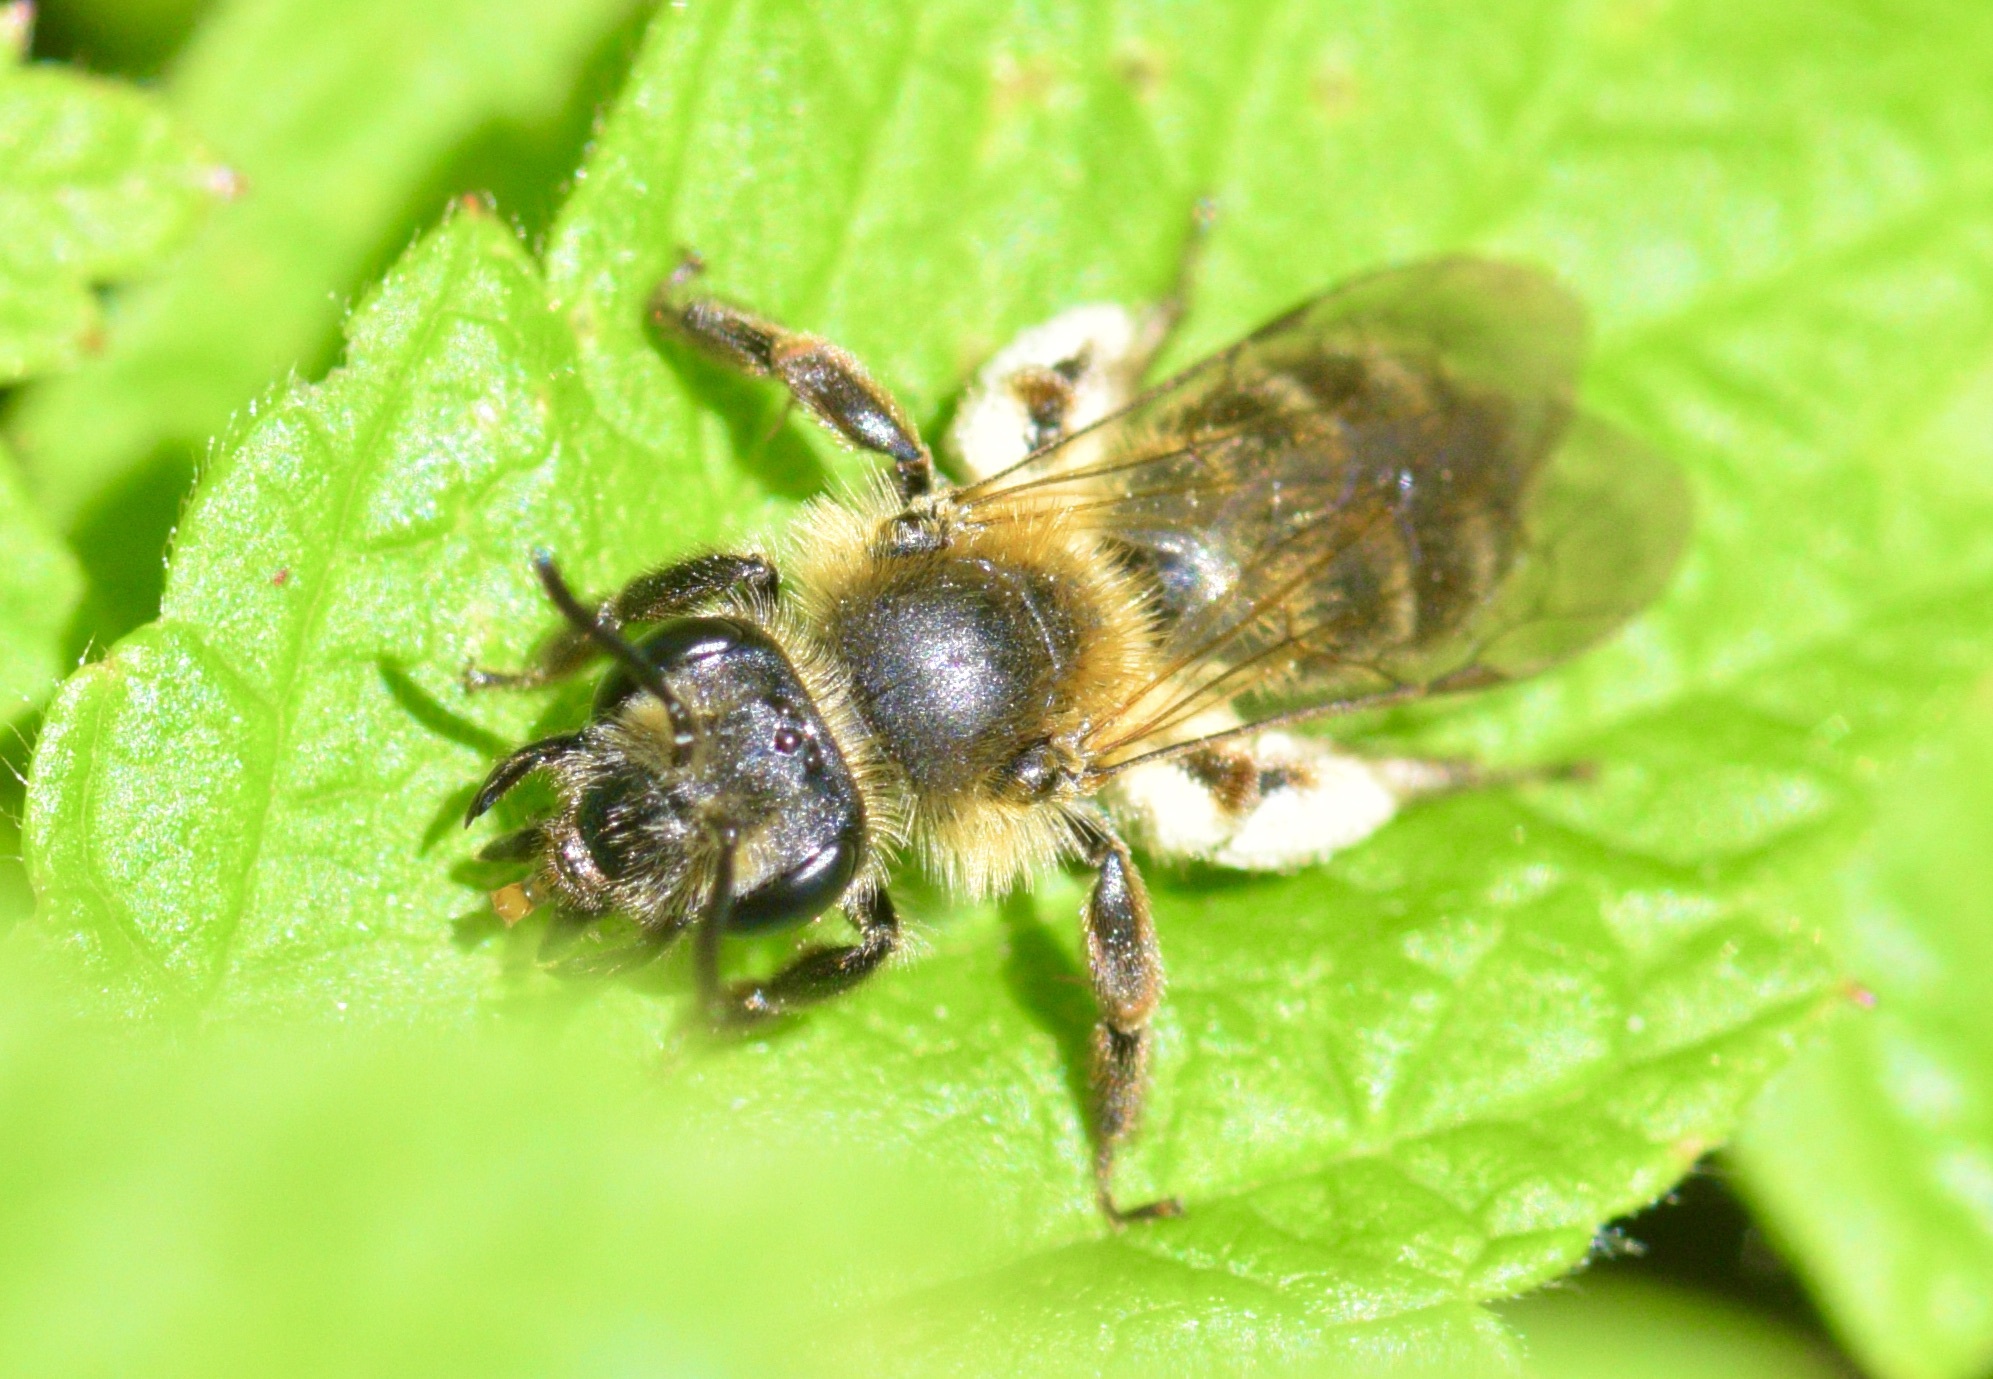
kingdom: Animalia
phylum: Arthropoda
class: Insecta
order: Hymenoptera
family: Andrenidae
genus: Andrena
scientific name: Andrena thaspii
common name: Parsnip miner bee
